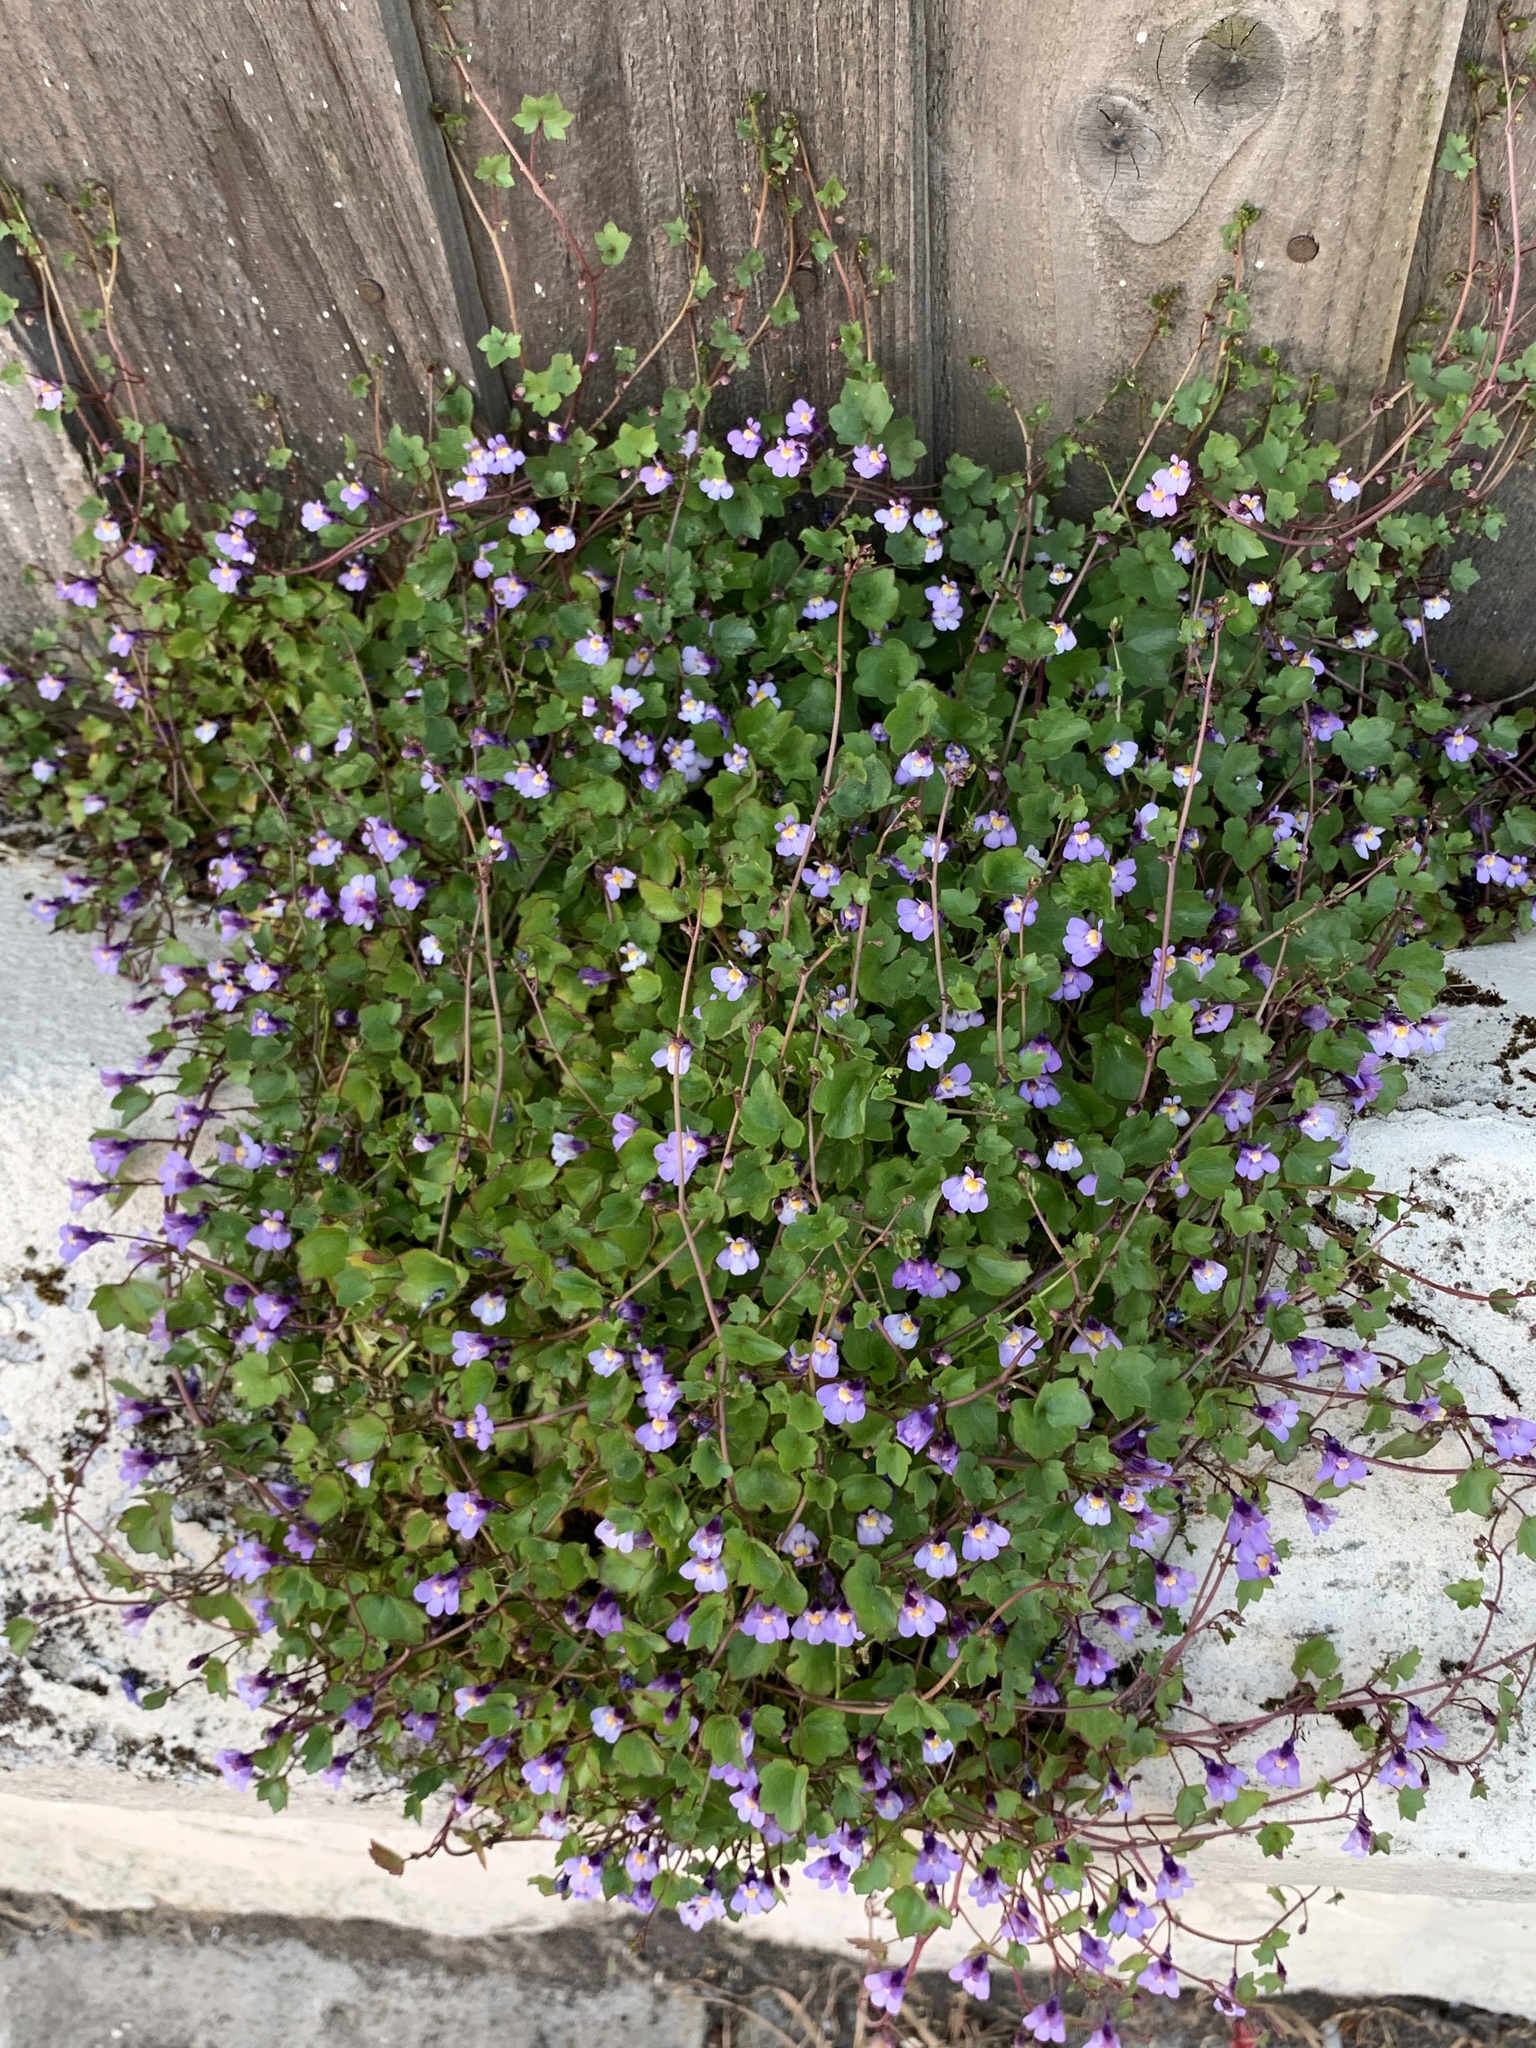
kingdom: Plantae
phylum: Tracheophyta
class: Magnoliopsida
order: Lamiales
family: Plantaginaceae
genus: Cymbalaria
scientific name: Cymbalaria muralis
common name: Ivy-leaved toadflax
